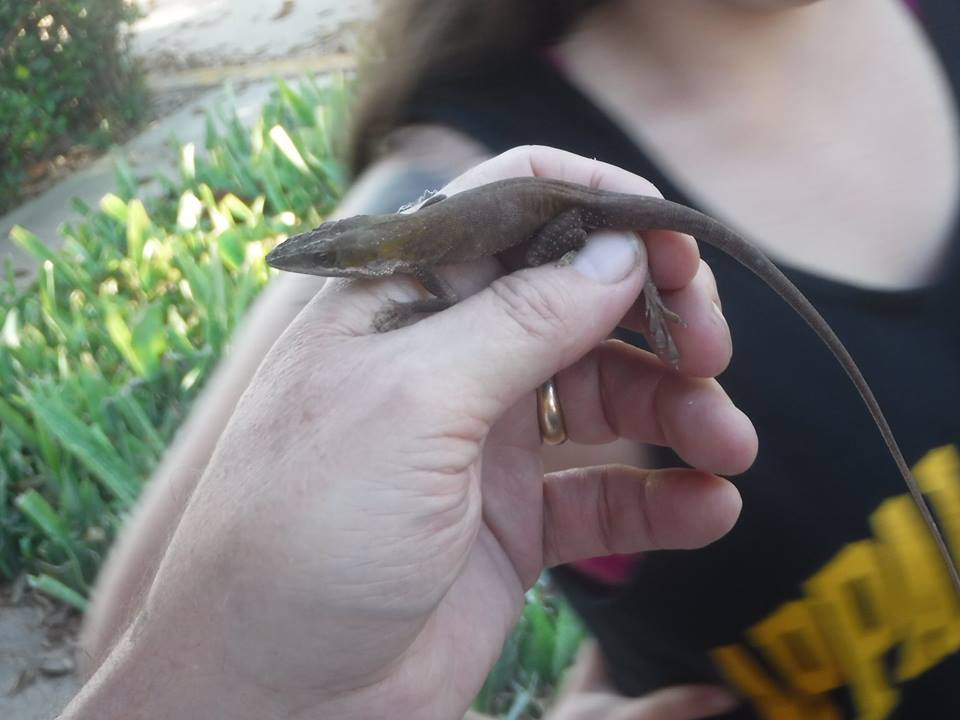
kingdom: Animalia
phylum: Chordata
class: Squamata
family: Dactyloidae
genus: Anolis
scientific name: Anolis
